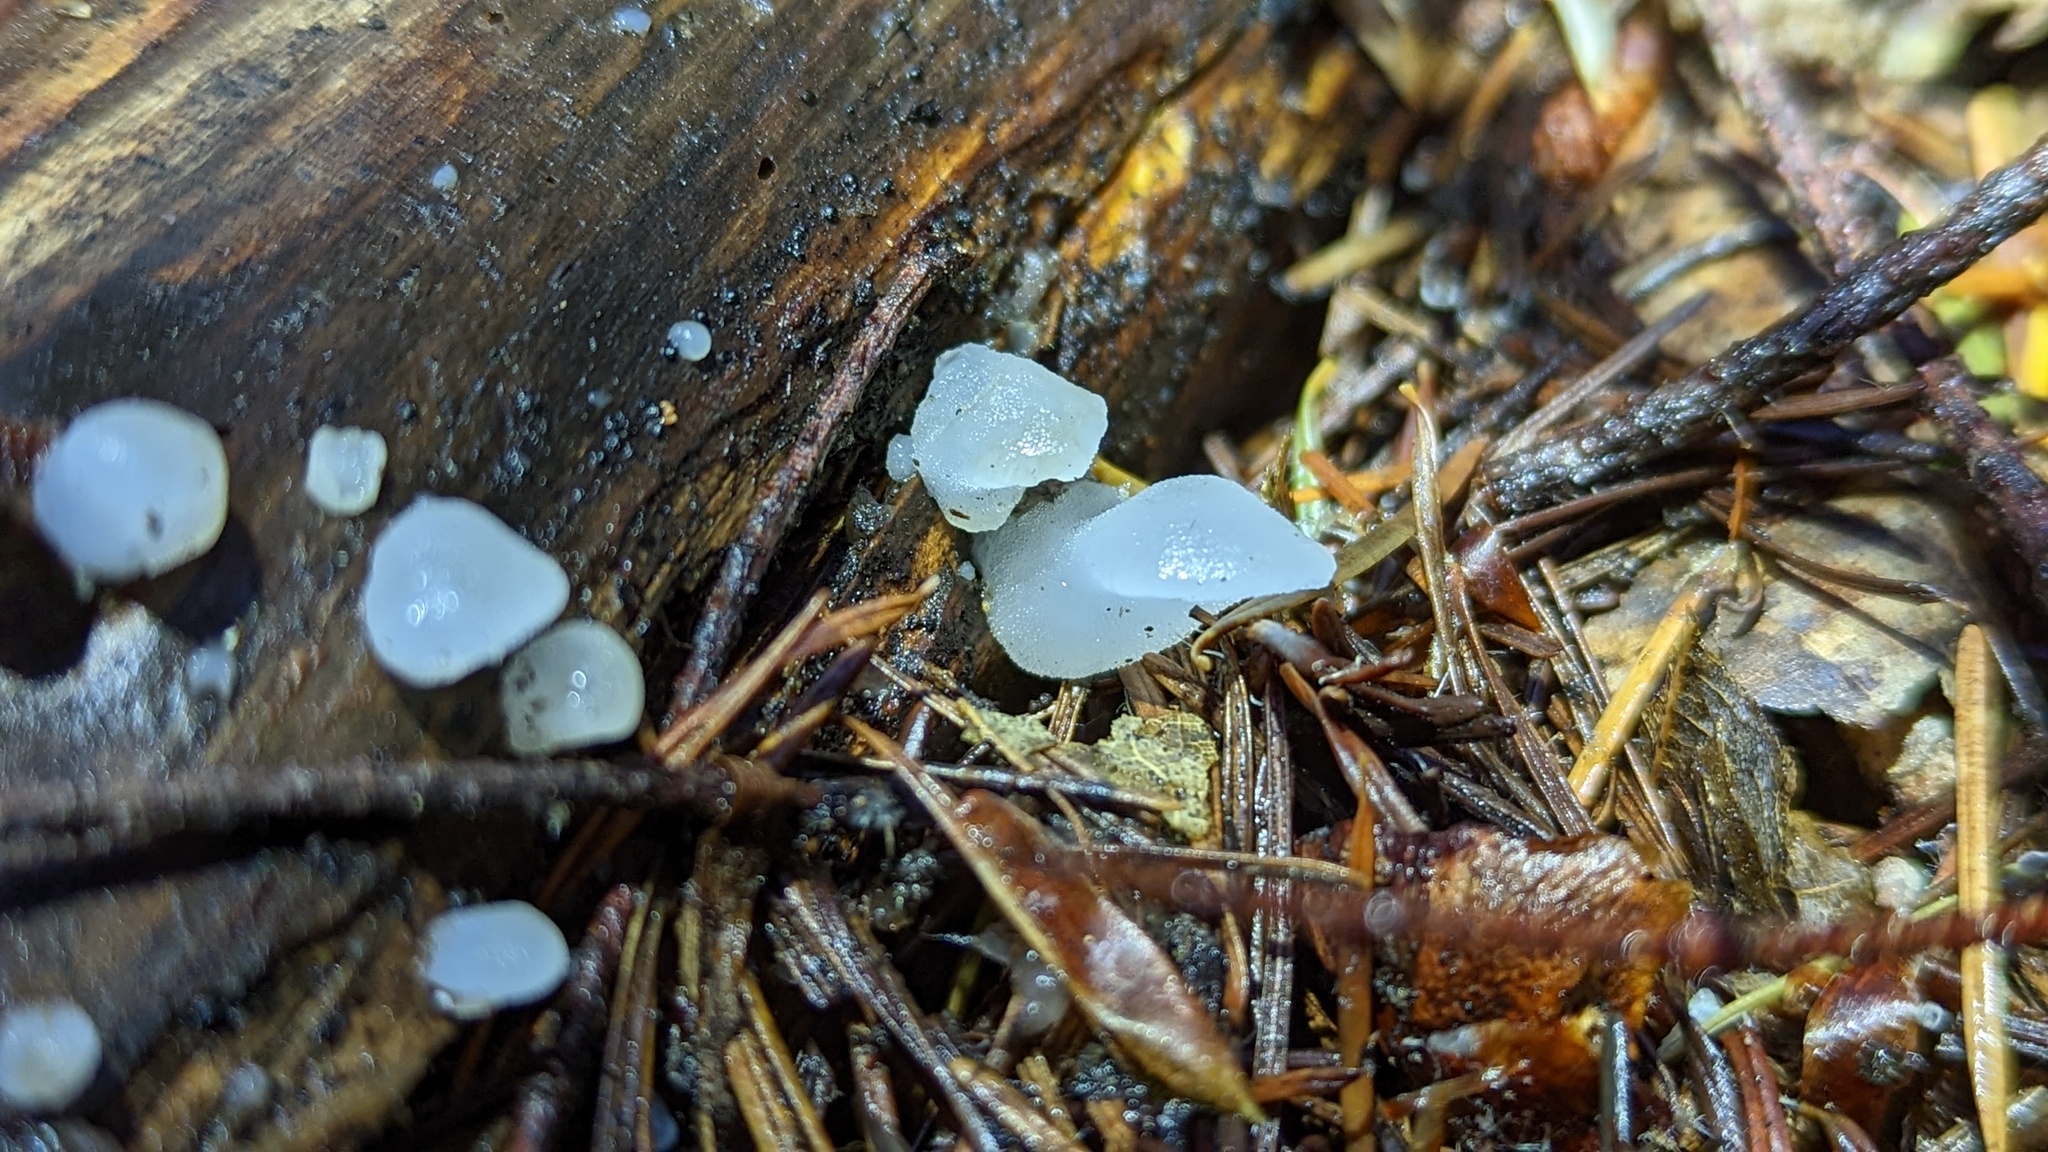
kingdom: Fungi
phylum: Basidiomycota
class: Agaricomycetes
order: Auriculariales
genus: Pseudohydnum
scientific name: Pseudohydnum gelatinosum
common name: Jelly tongue
